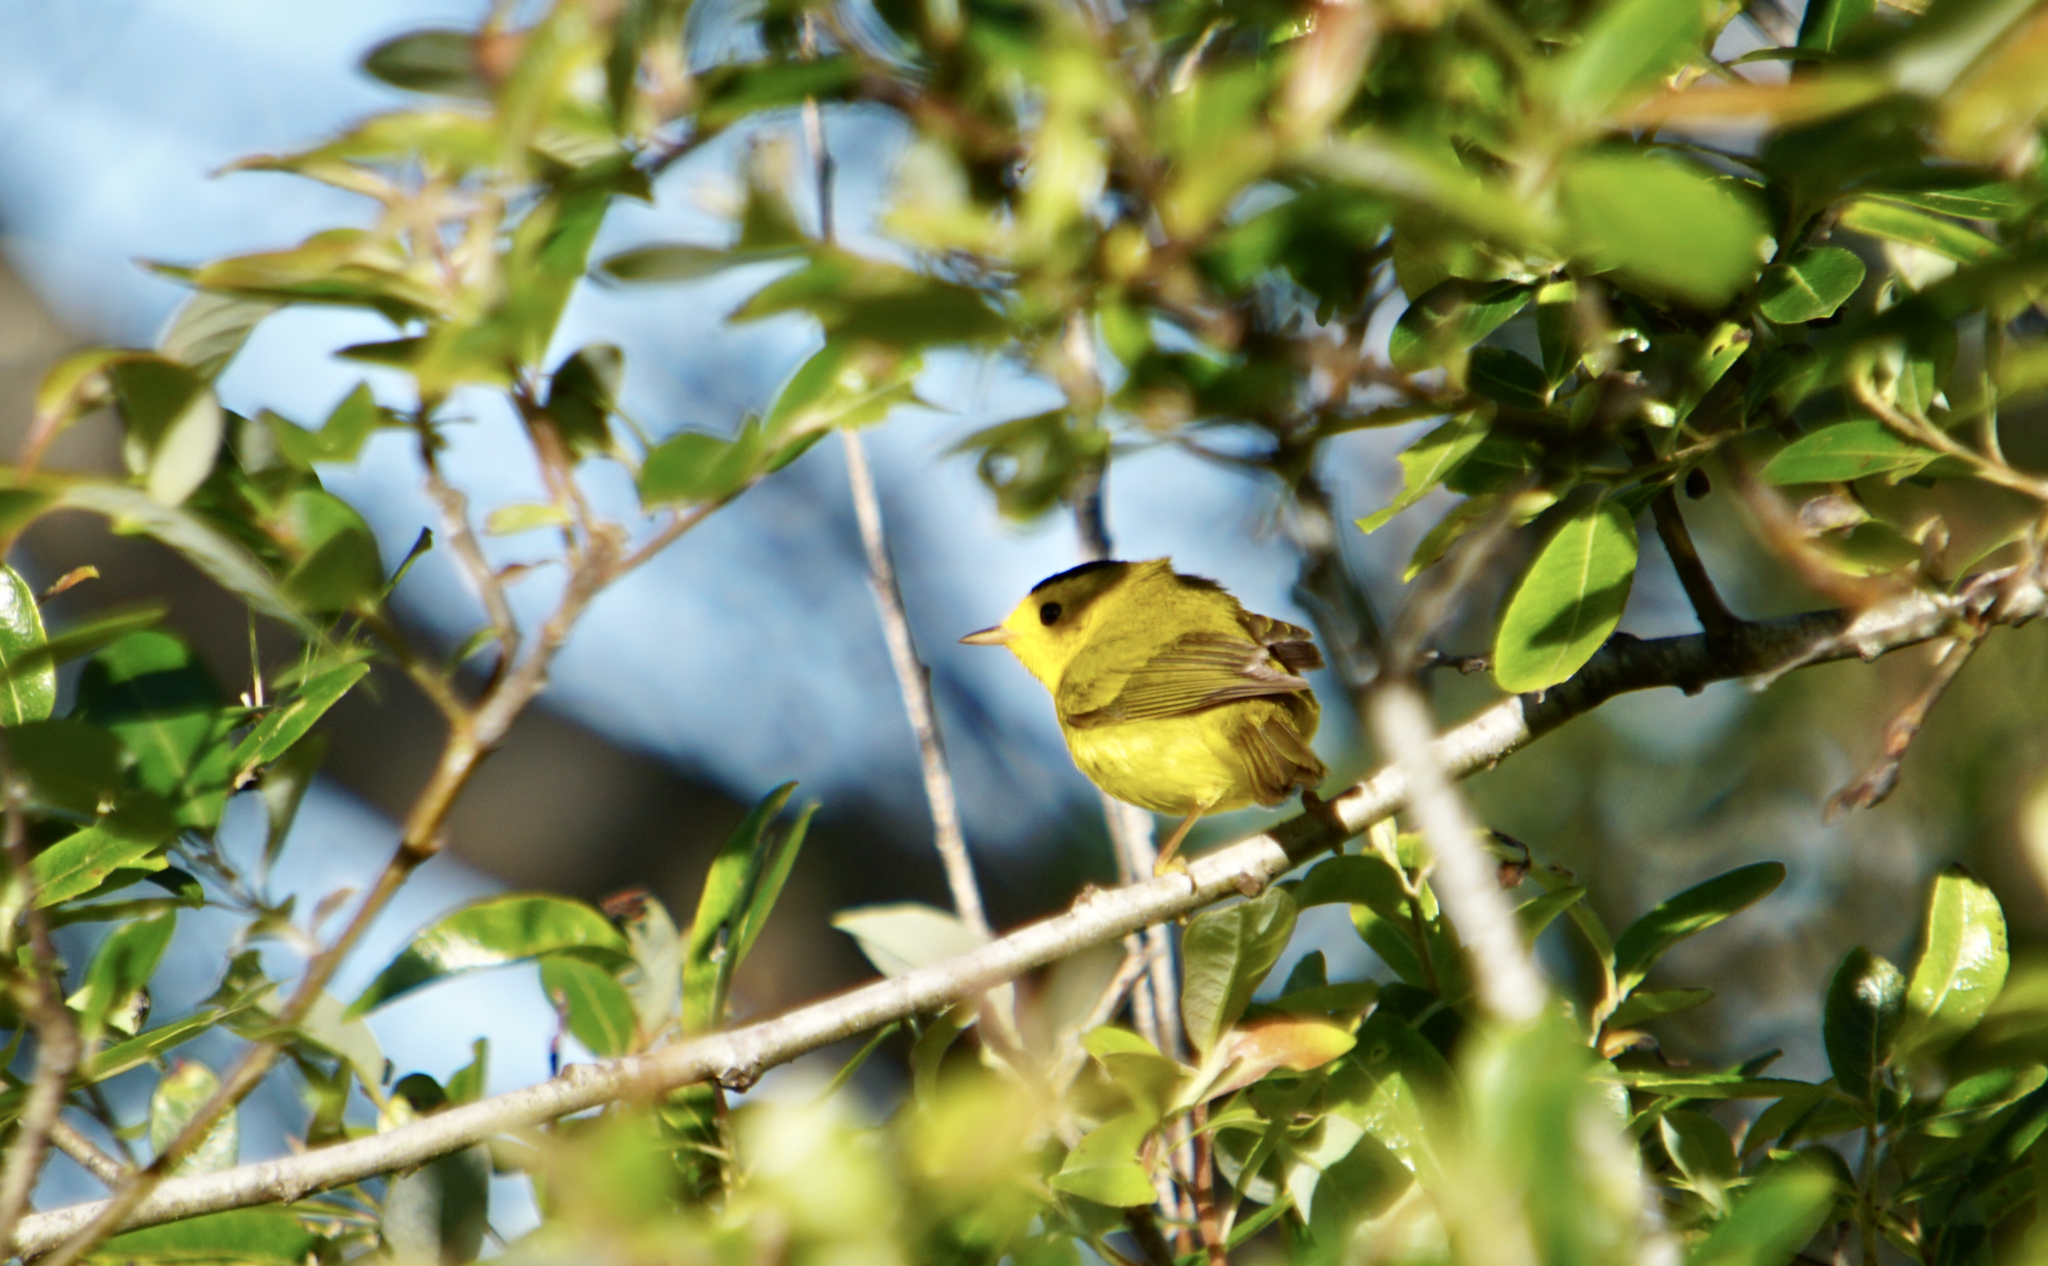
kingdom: Animalia
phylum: Chordata
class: Aves
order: Passeriformes
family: Parulidae
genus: Cardellina
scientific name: Cardellina pusilla
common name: Wilson's warbler
